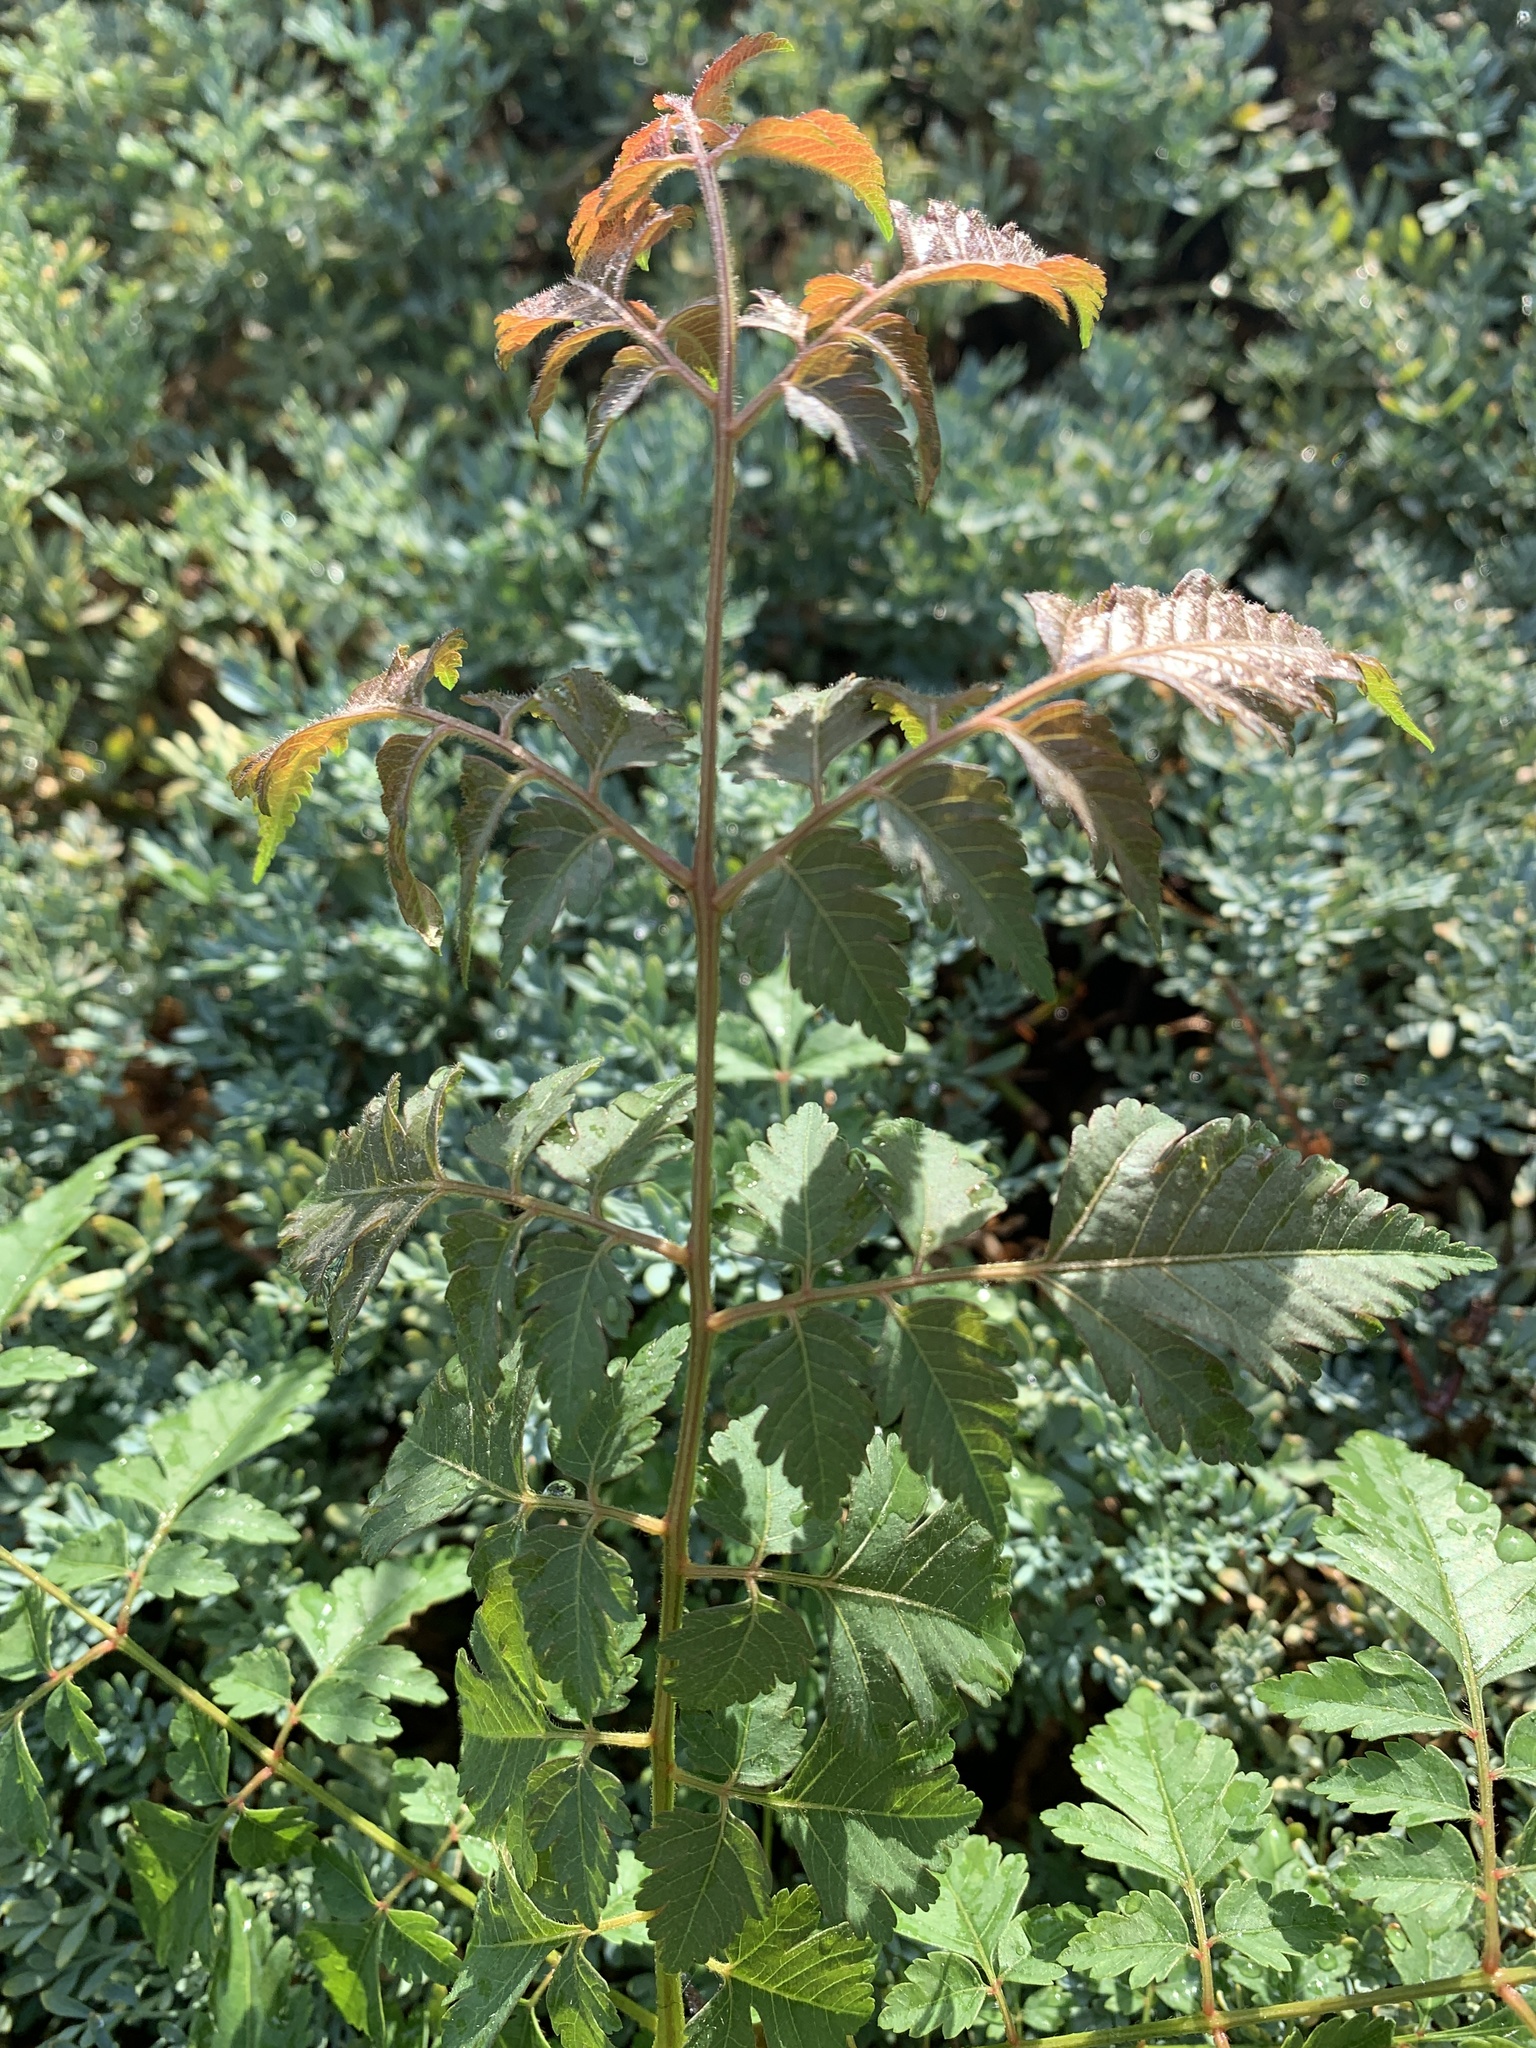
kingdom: Plantae
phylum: Tracheophyta
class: Magnoliopsida
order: Sapindales
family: Sapindaceae
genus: Koelreuteria
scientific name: Koelreuteria elegans
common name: Chinese flame tree
